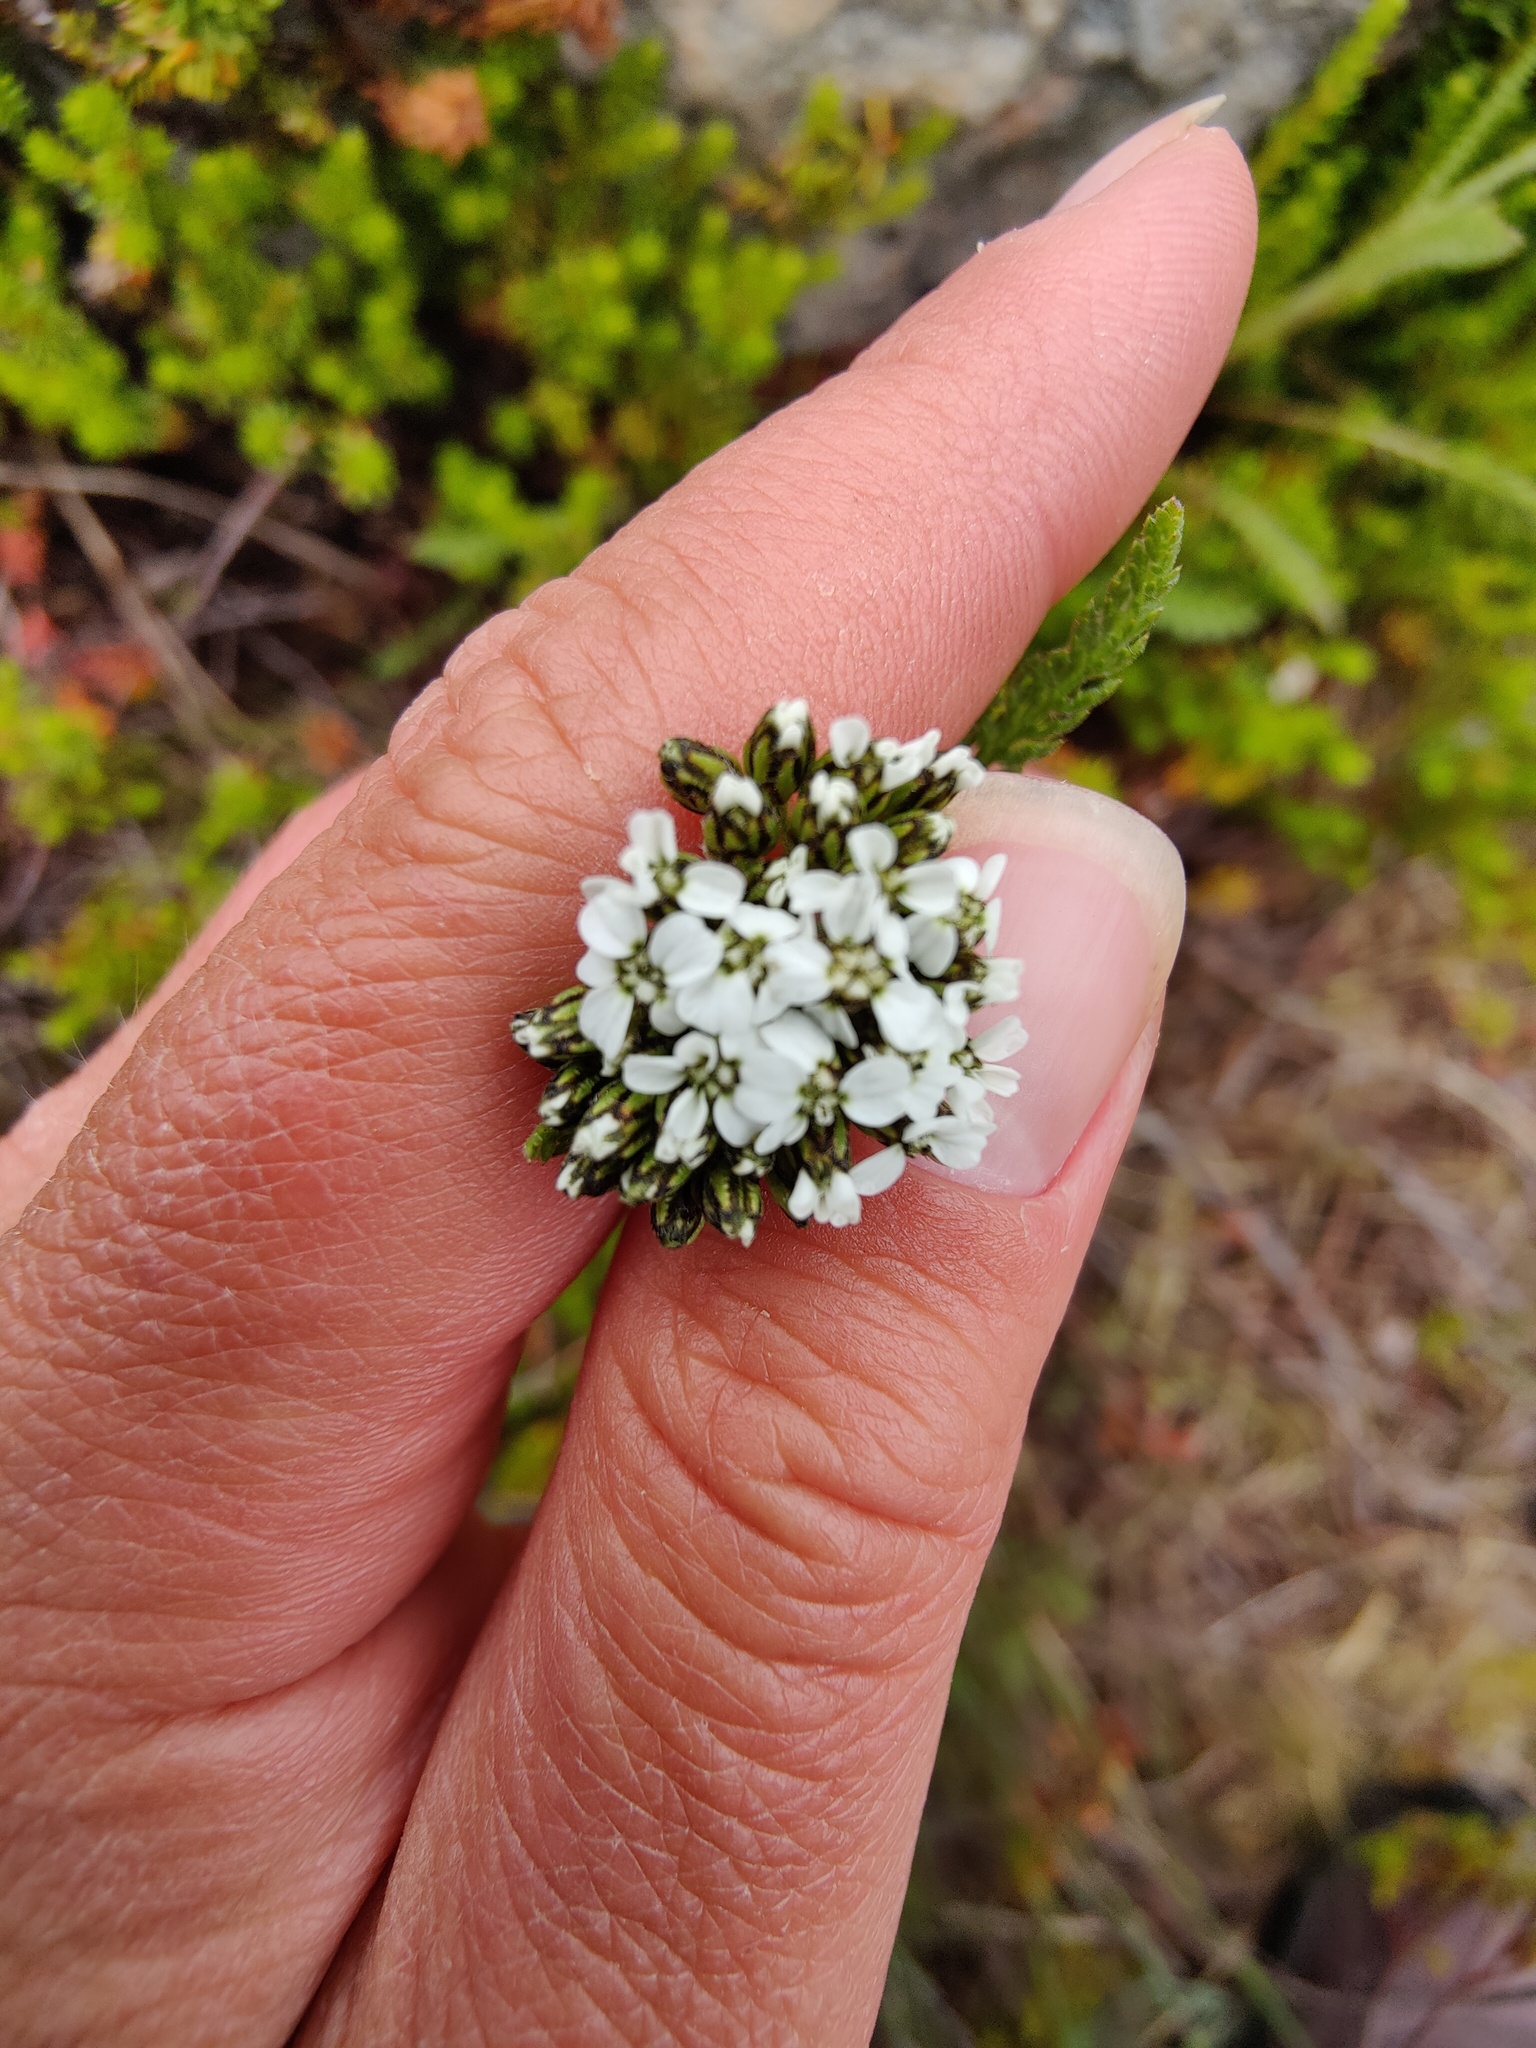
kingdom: Plantae
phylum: Tracheophyta
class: Magnoliopsida
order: Asterales
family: Asteraceae
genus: Achillea
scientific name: Achillea apiculata
